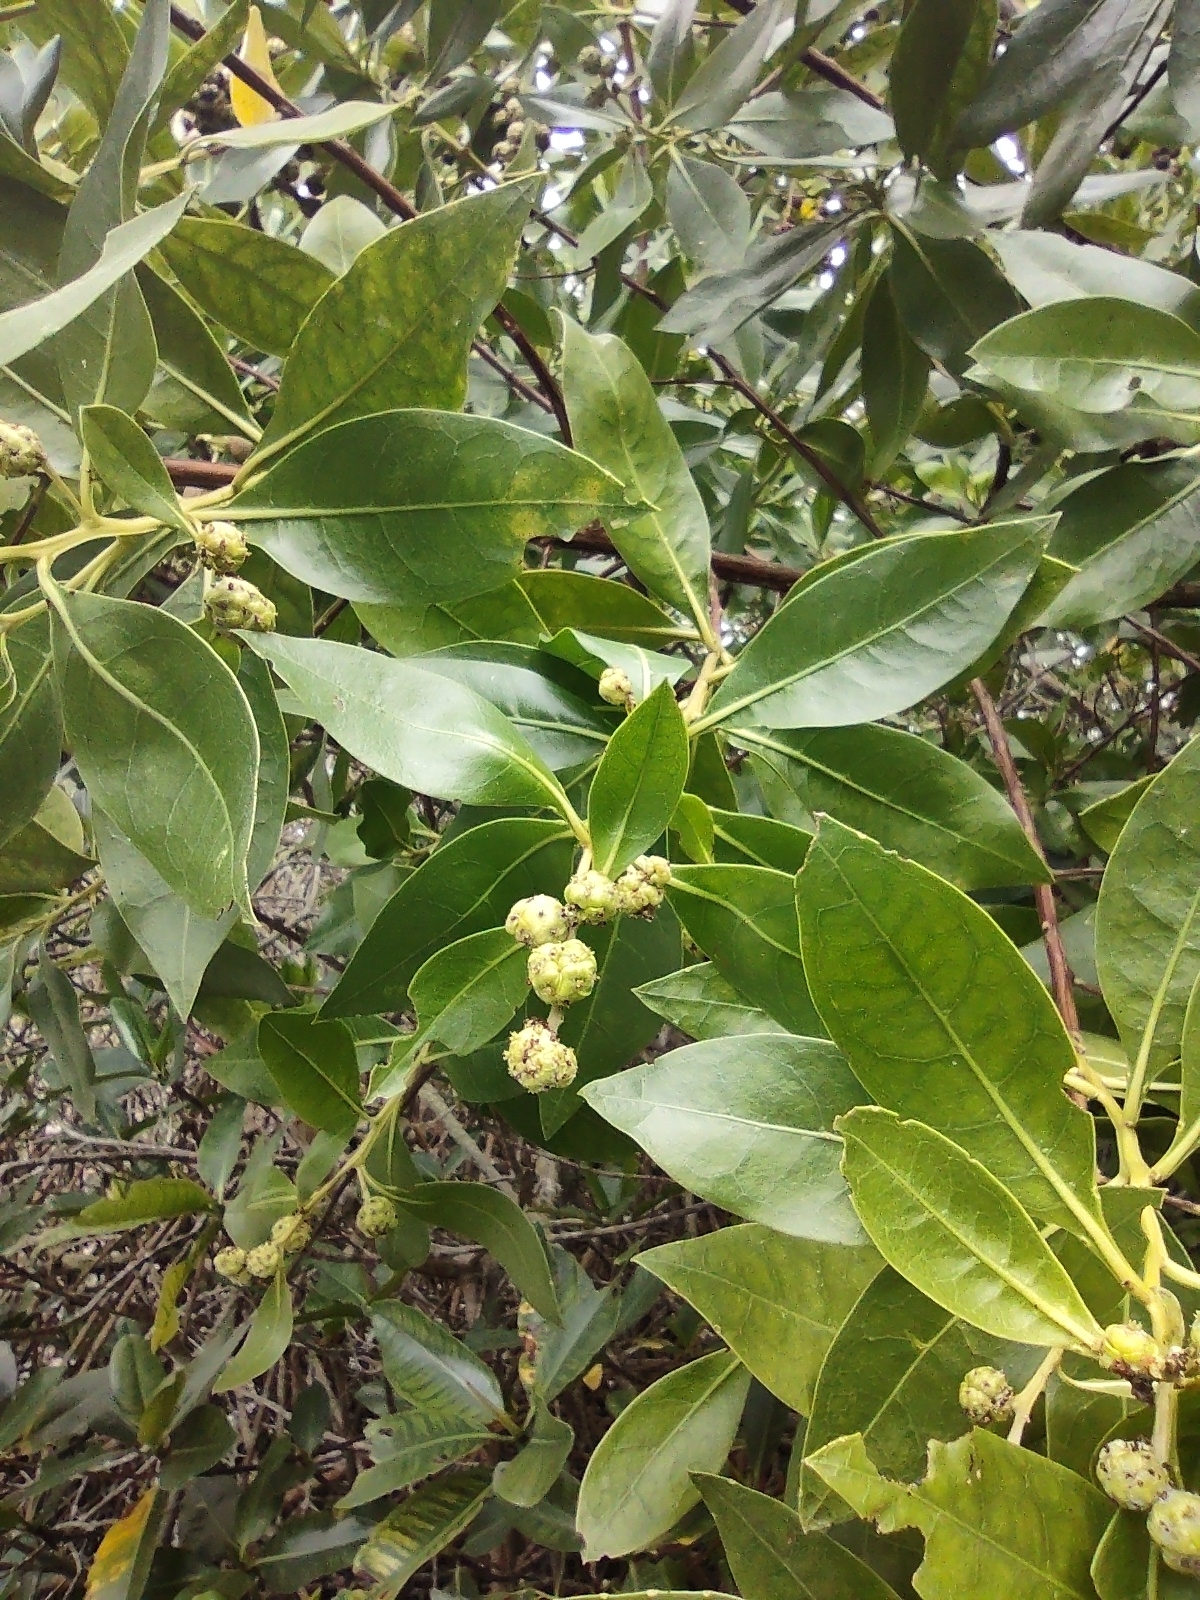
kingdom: Plantae
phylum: Tracheophyta
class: Magnoliopsida
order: Myrtales
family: Combretaceae
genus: Conocarpus
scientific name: Conocarpus erectus
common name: Button mangrove
